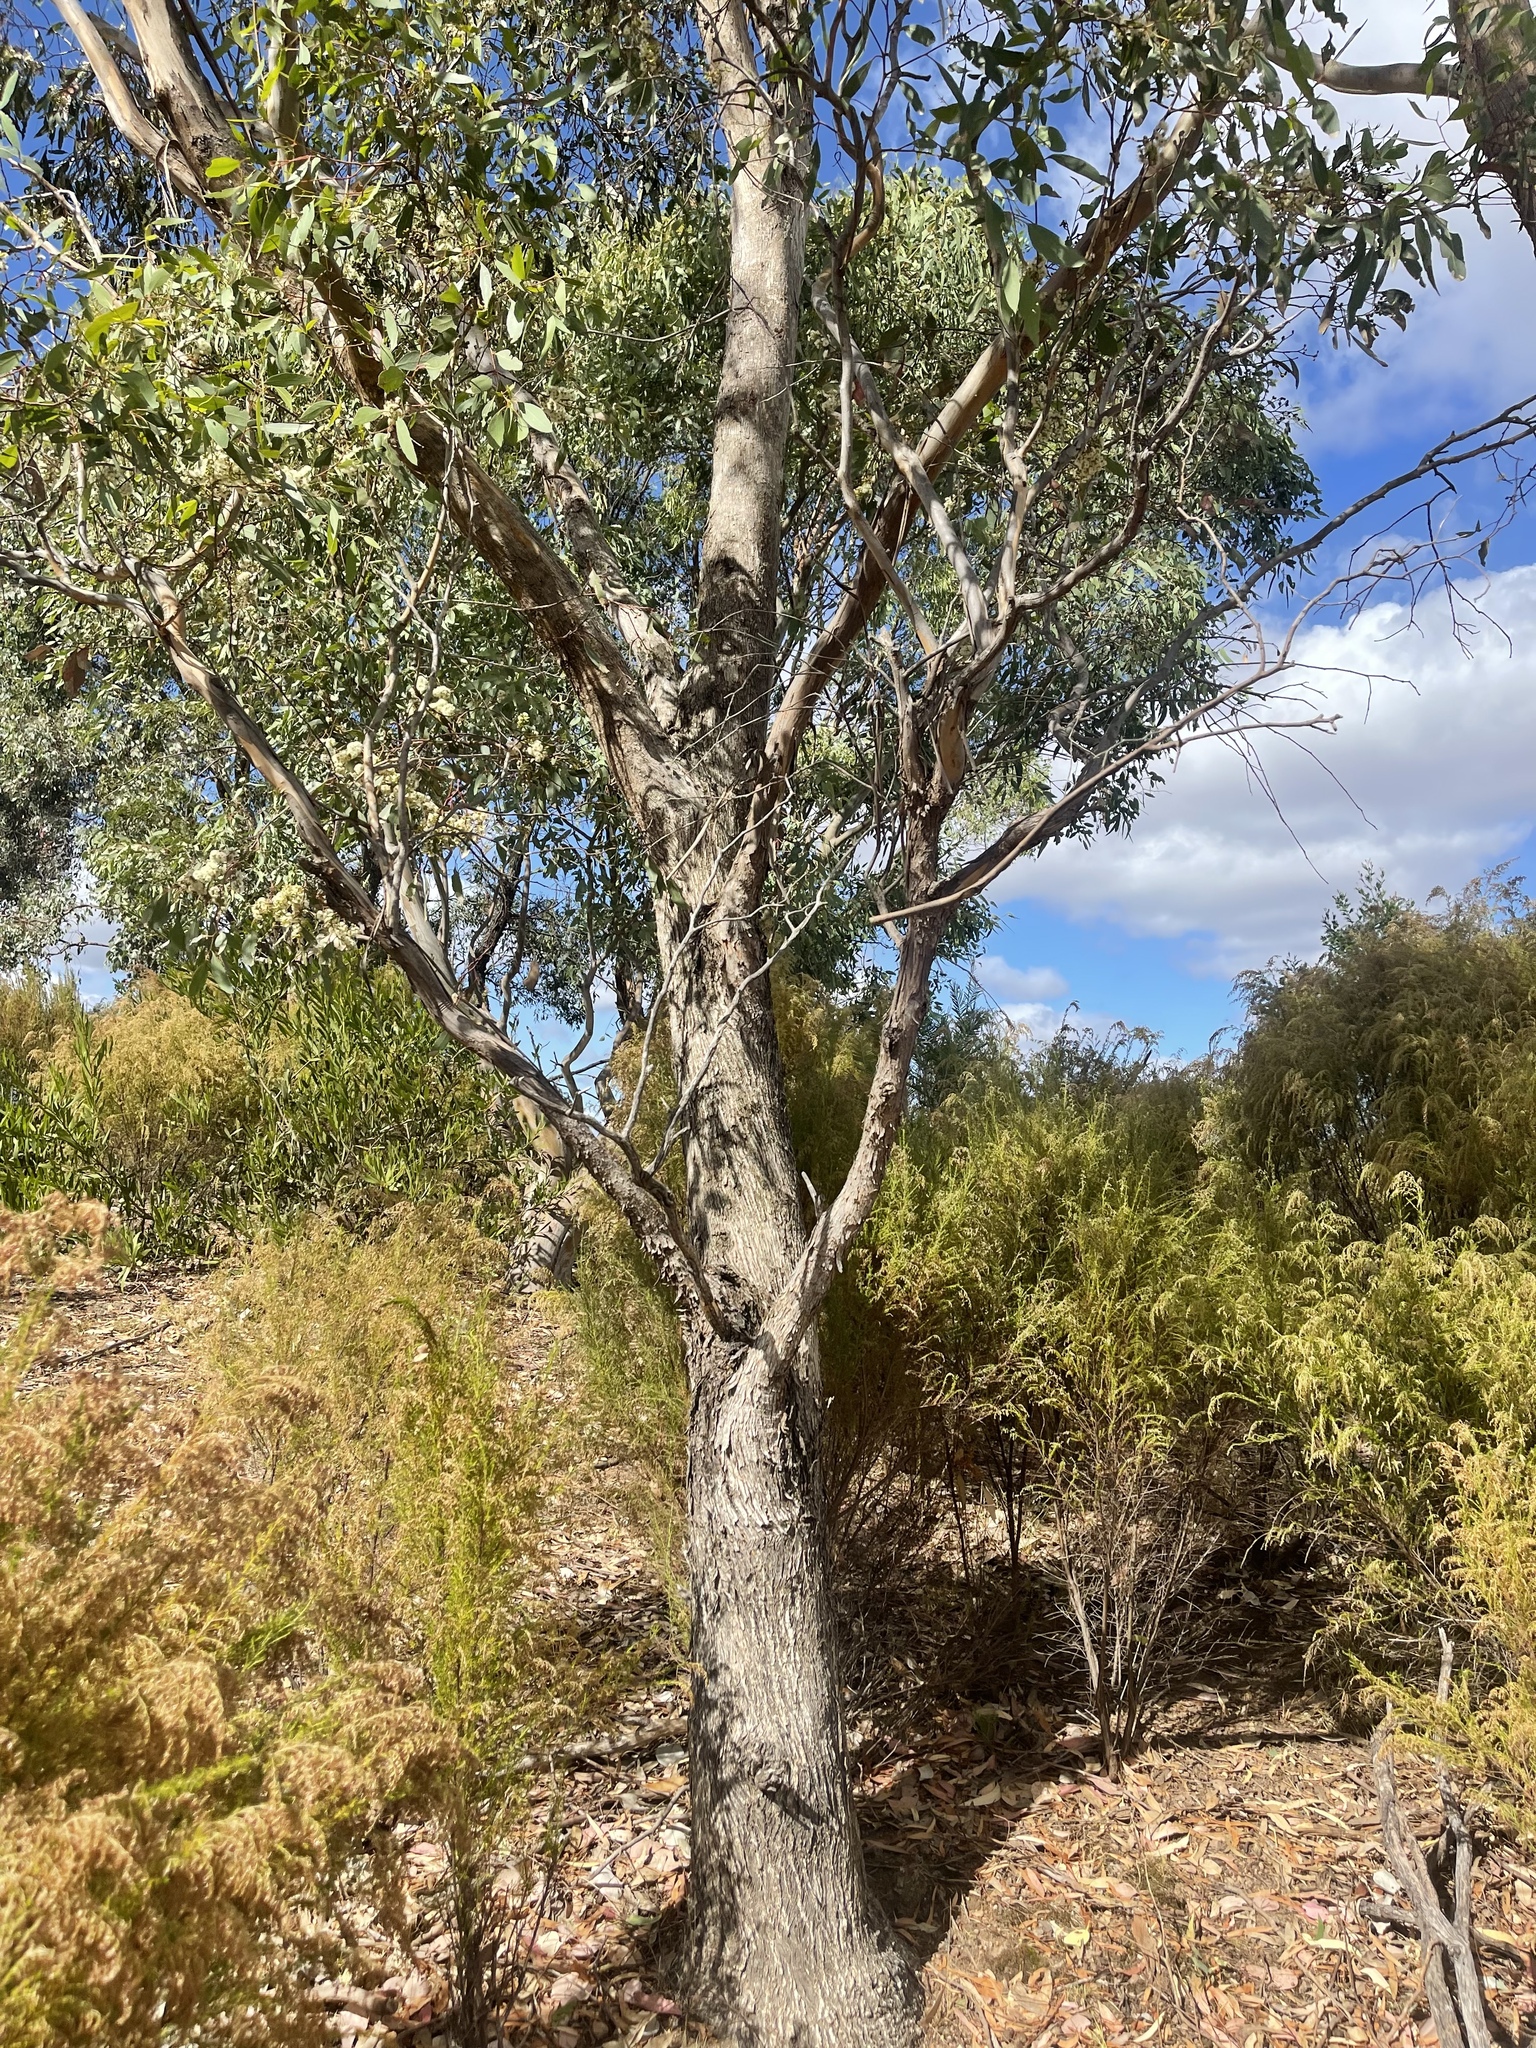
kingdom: Plantae
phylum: Tracheophyta
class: Magnoliopsida
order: Myrtales
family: Myrtaceae
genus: Eucalyptus
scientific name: Eucalyptus melliodora
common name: Yellow ironbox
